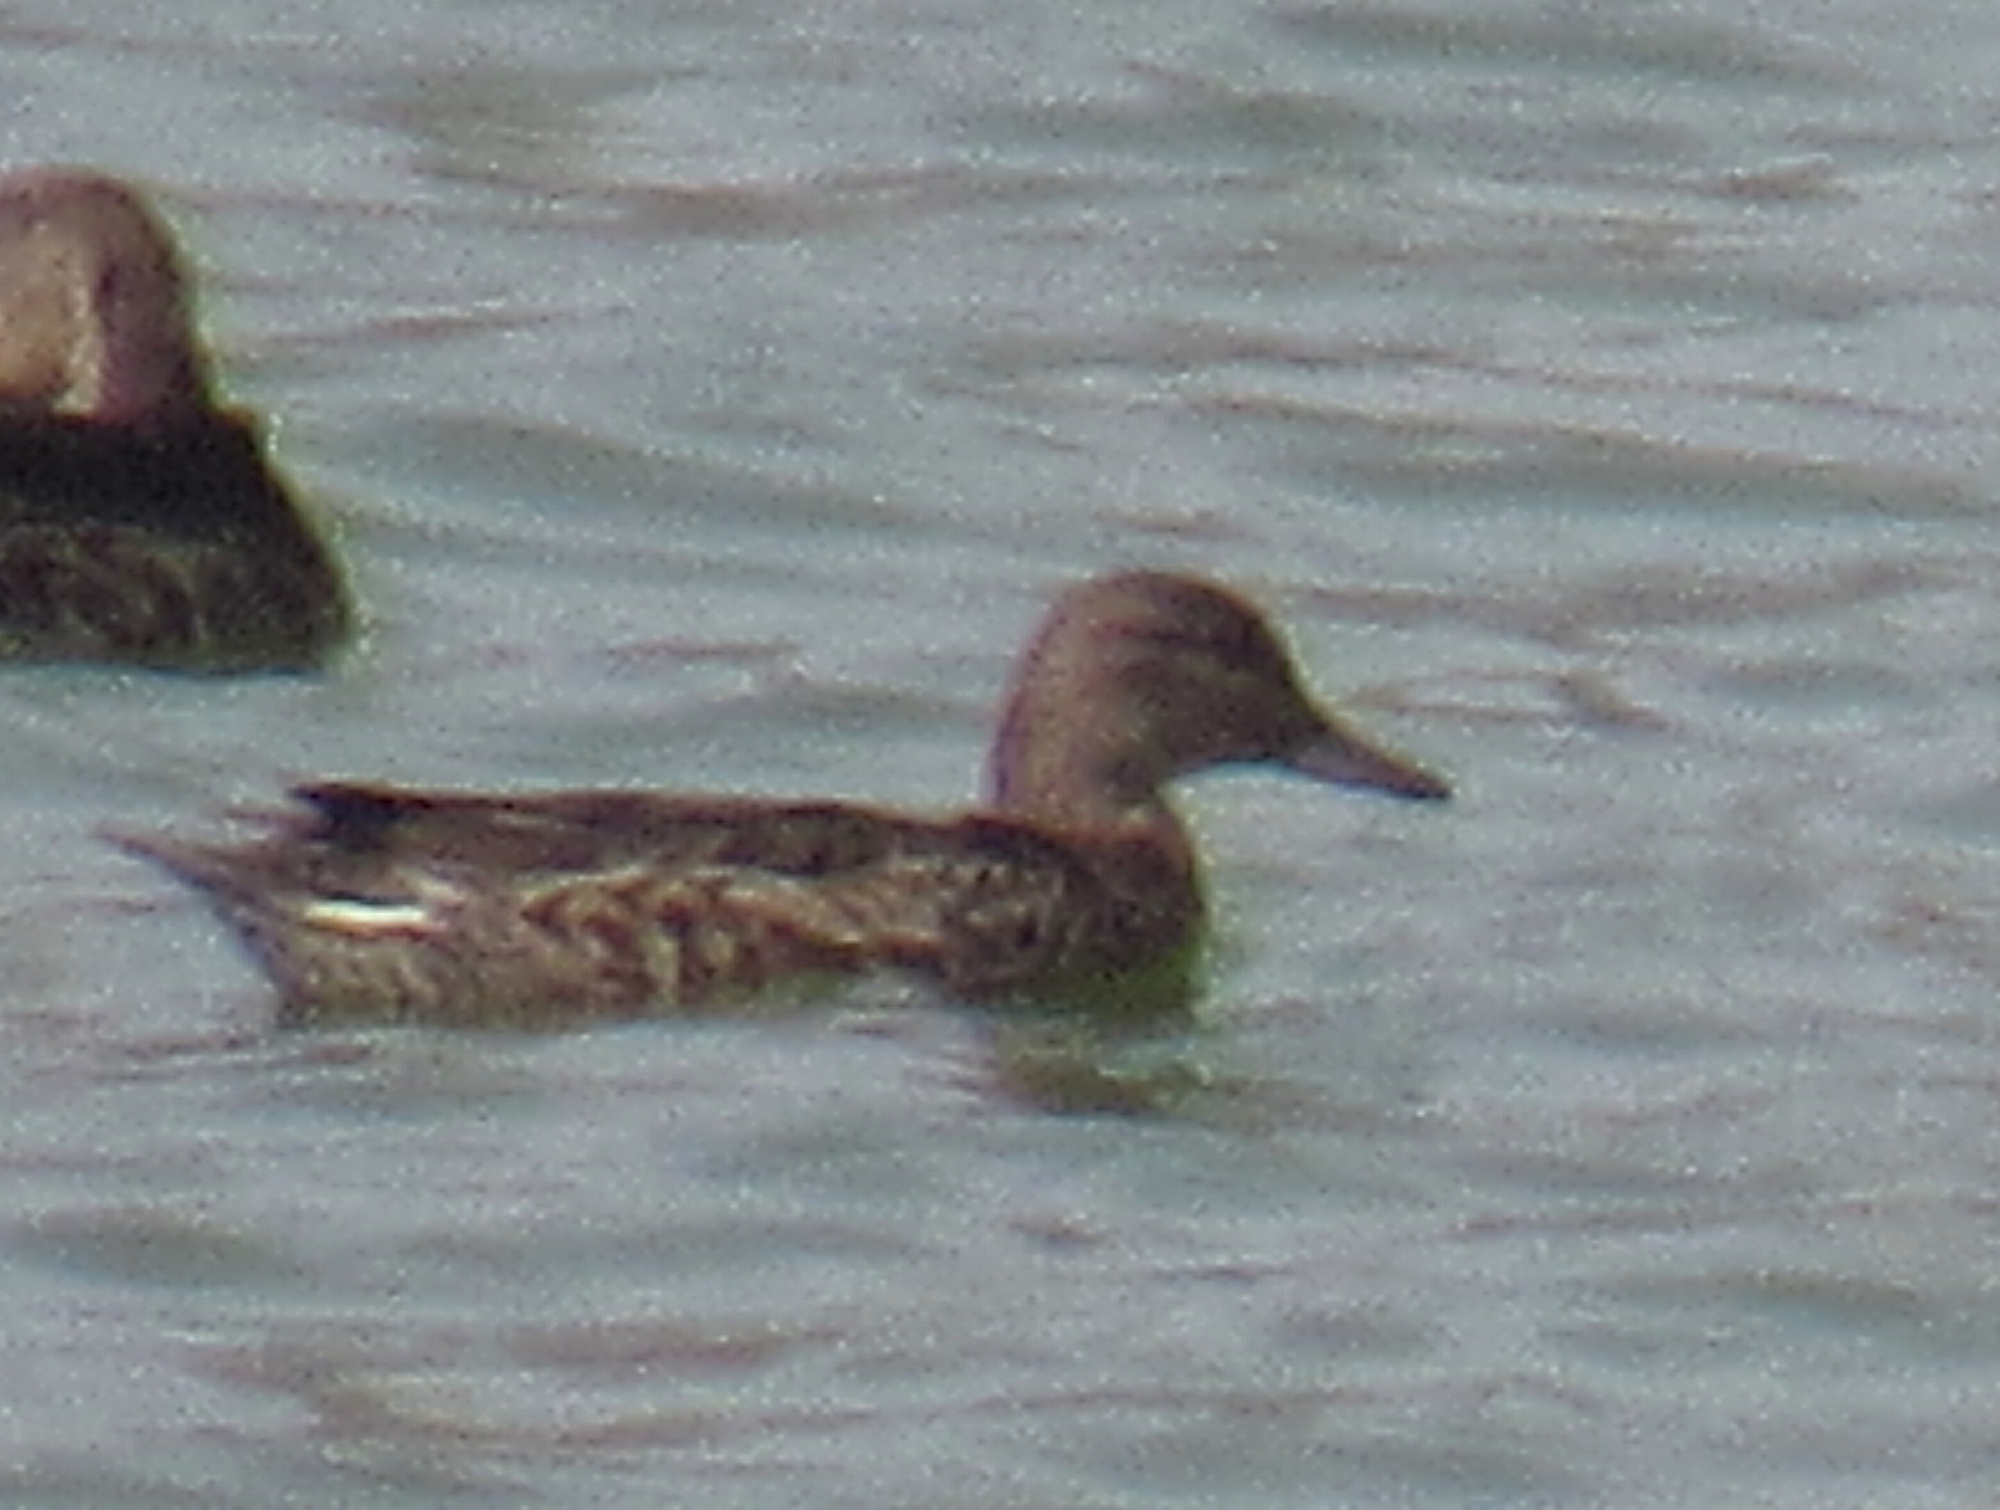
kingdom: Animalia
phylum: Chordata
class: Aves
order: Anseriformes
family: Anatidae
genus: Anas
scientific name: Anas crecca
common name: Eurasian teal
